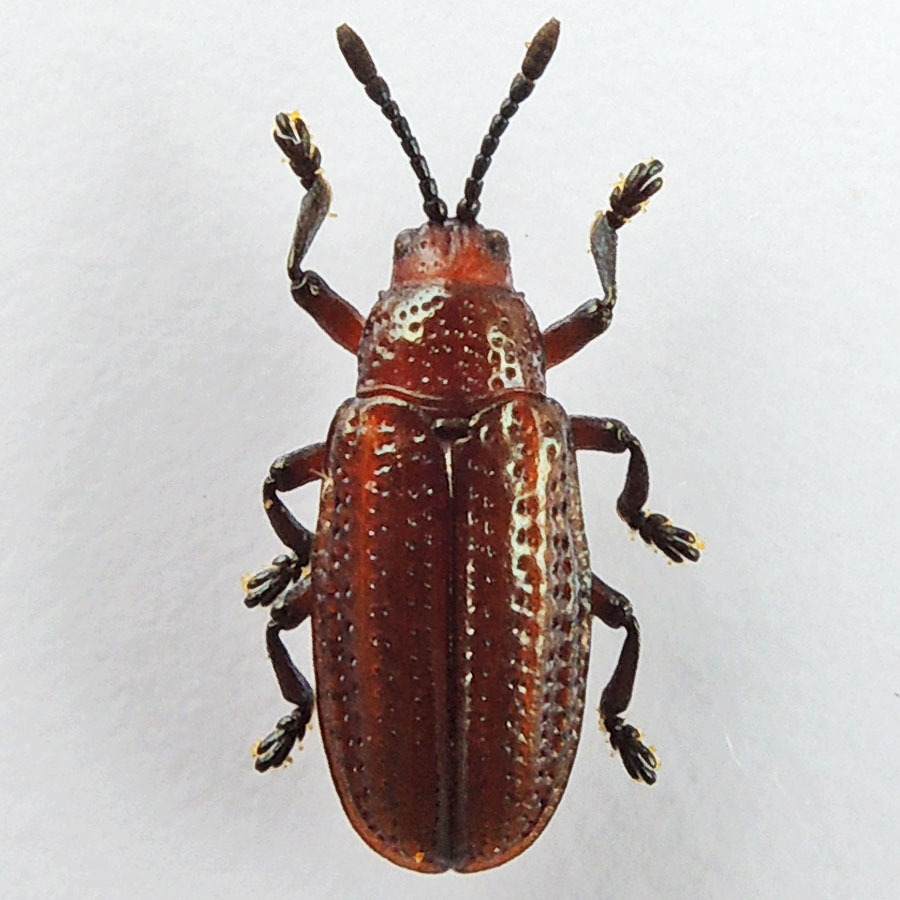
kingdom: Animalia
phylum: Arthropoda
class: Insecta
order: Coleoptera
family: Chrysomelidae
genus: Microrhopala
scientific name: Microrhopala vittata
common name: Goldenrod leaf miner beetle
